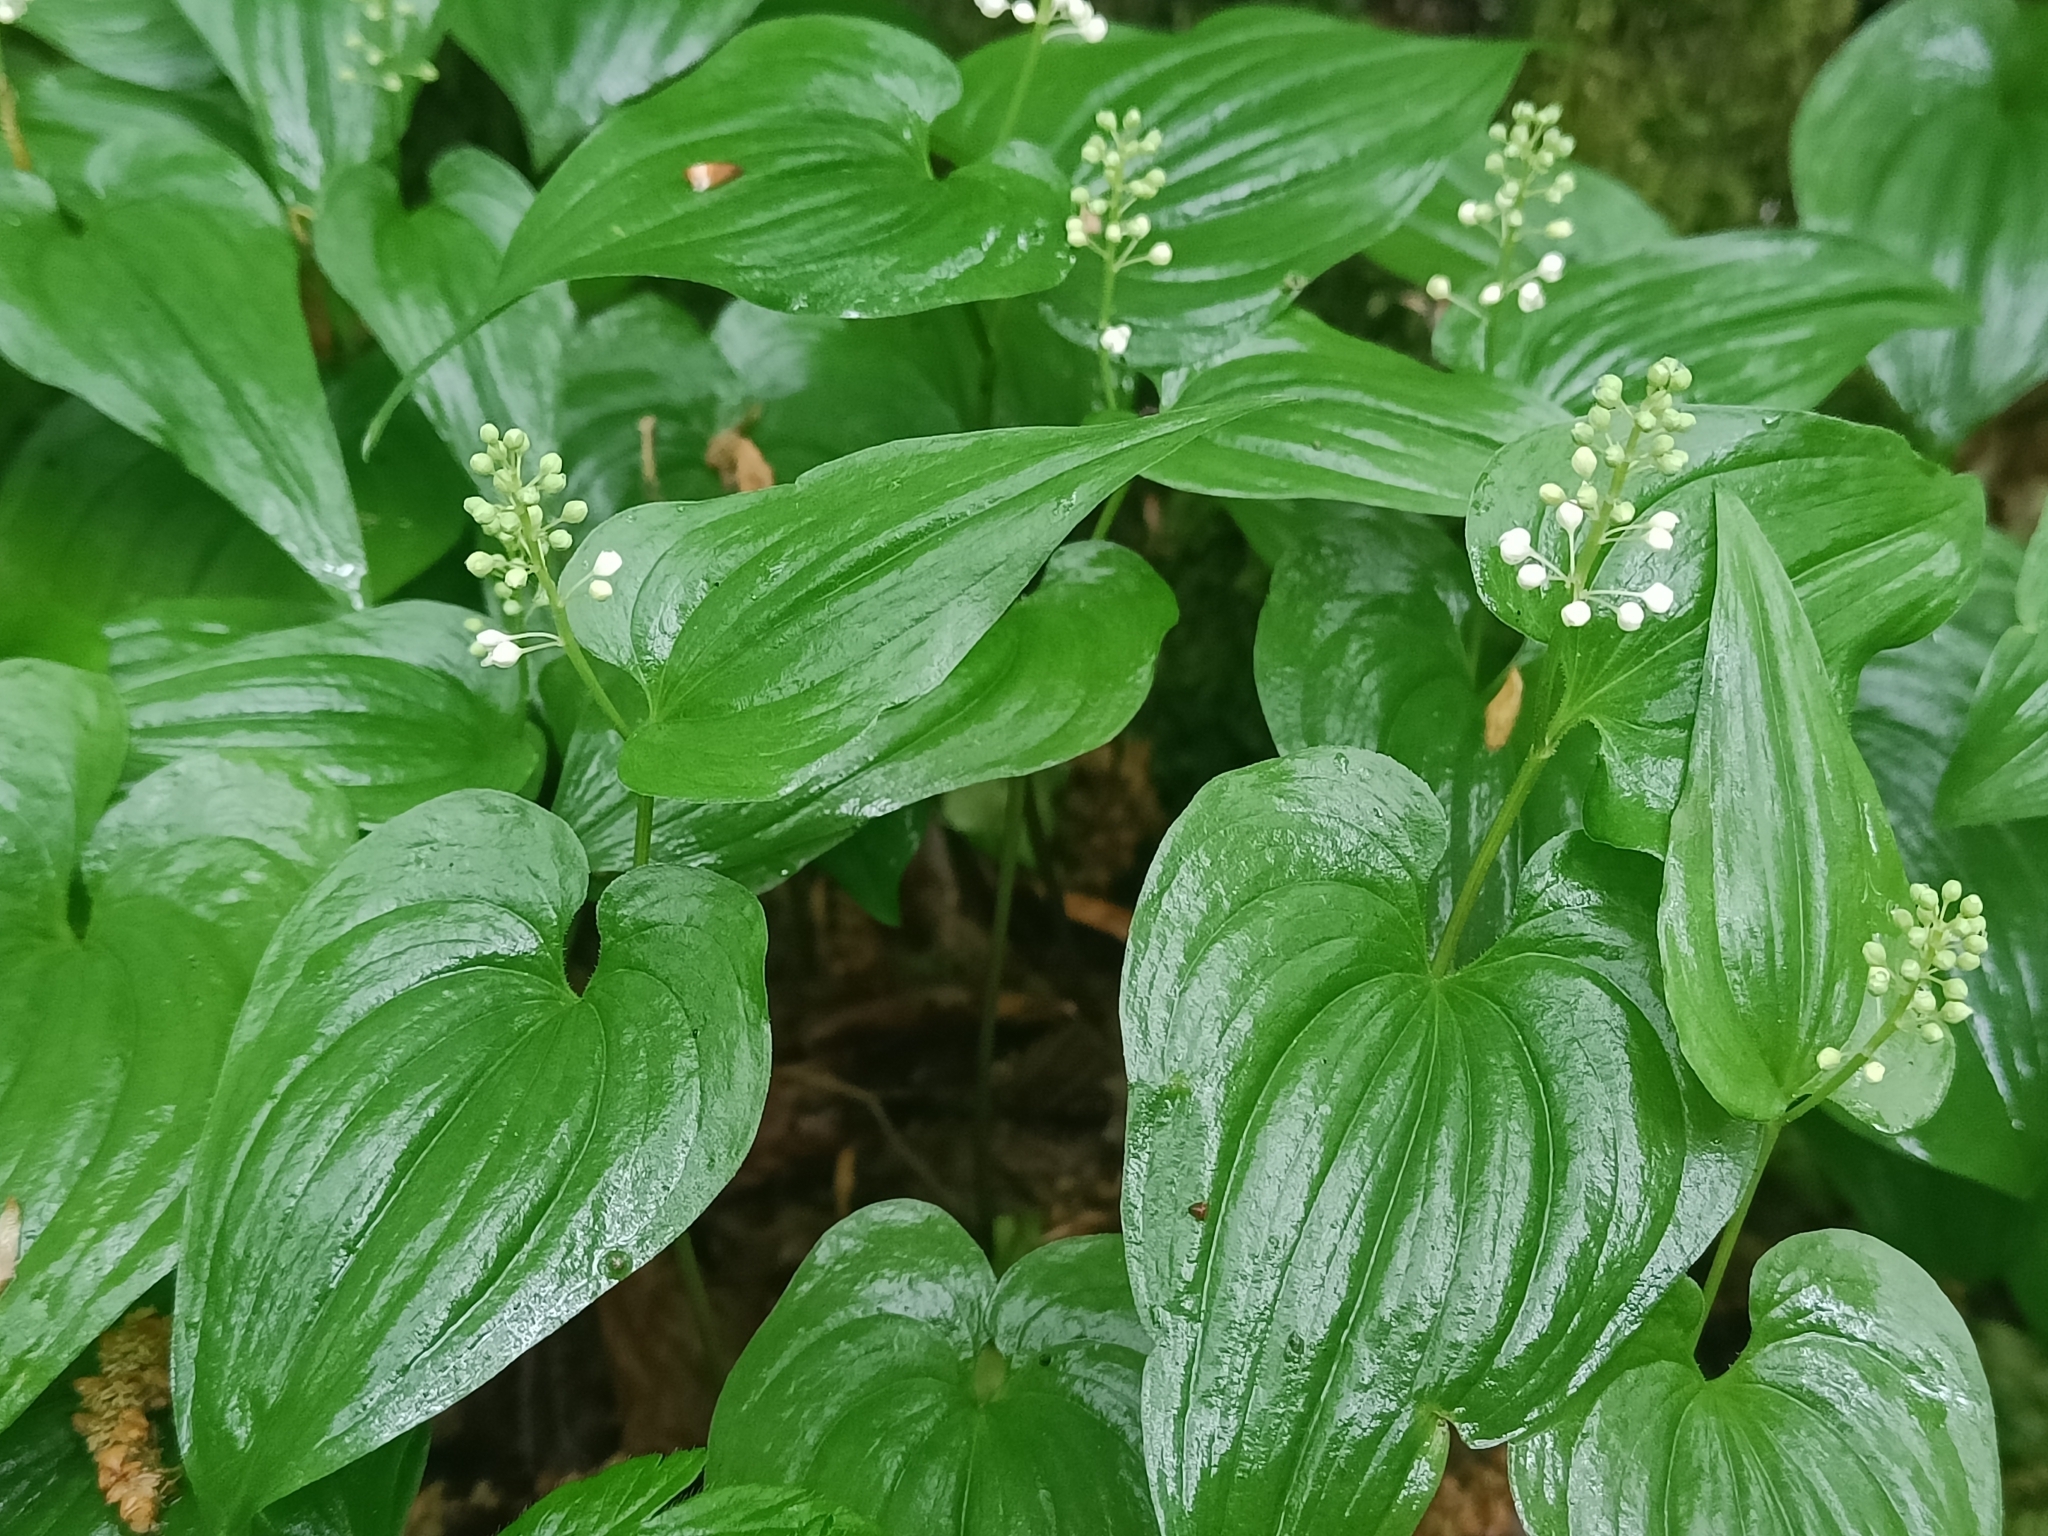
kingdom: Plantae
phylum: Tracheophyta
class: Liliopsida
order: Asparagales
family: Asparagaceae
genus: Maianthemum
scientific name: Maianthemum bifolium
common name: May lily
